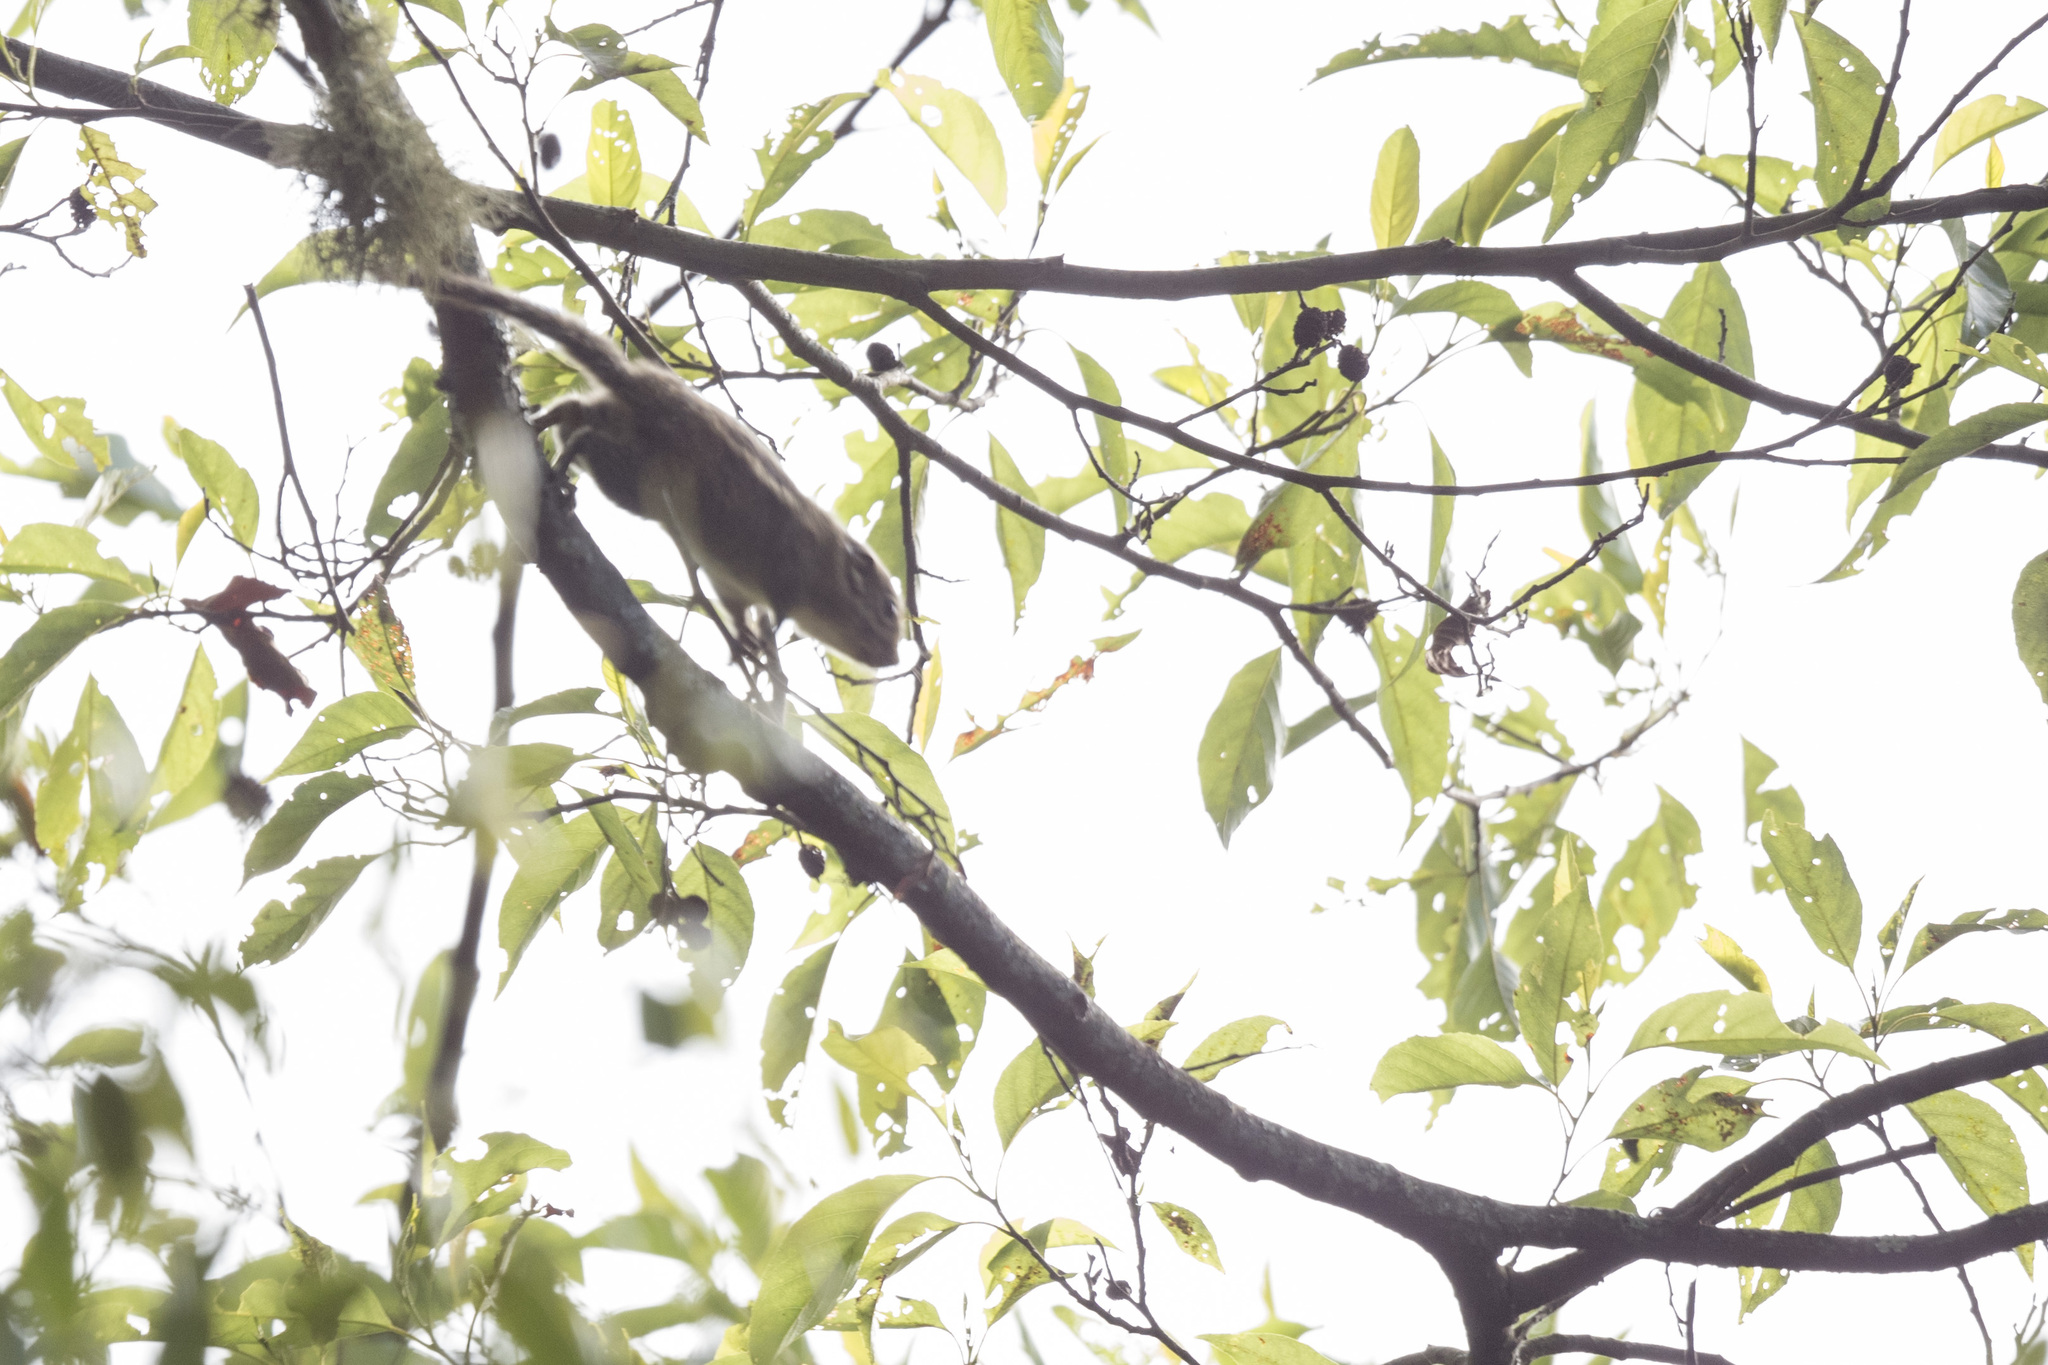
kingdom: Animalia
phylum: Chordata
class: Mammalia
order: Rodentia
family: Sciuridae
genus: Tamiops
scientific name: Tamiops maritimus
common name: Maritime striped squirrel
